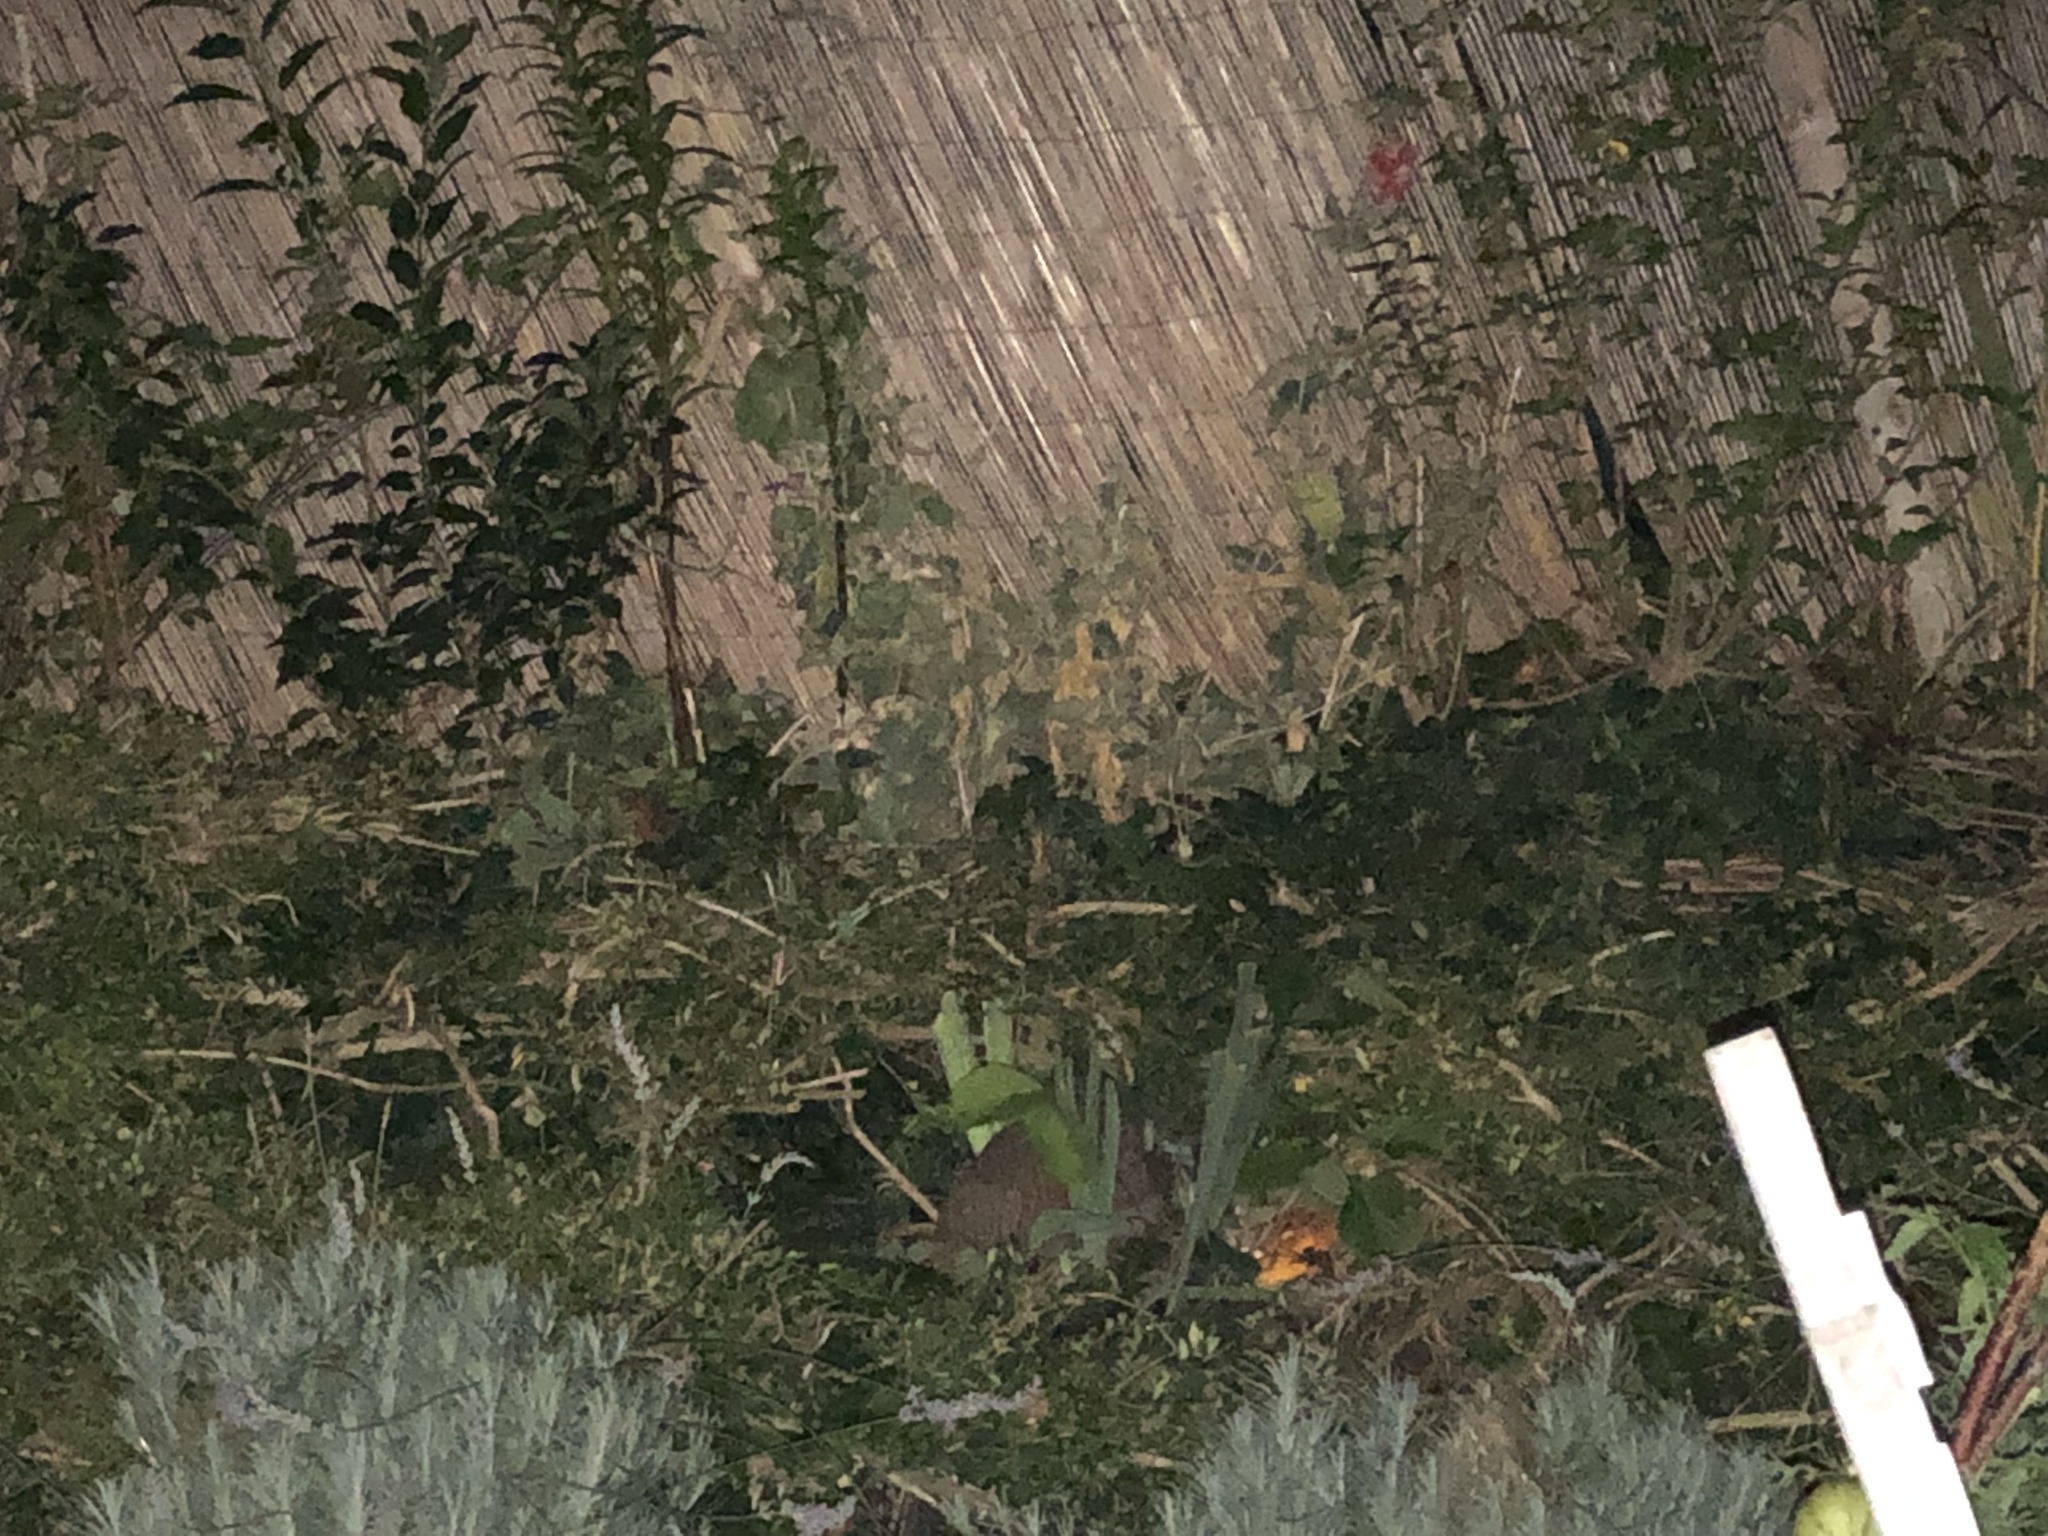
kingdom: Animalia
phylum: Chordata
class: Mammalia
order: Erinaceomorpha
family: Erinaceidae
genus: Erinaceus
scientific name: Erinaceus europaeus
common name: West european hedgehog
